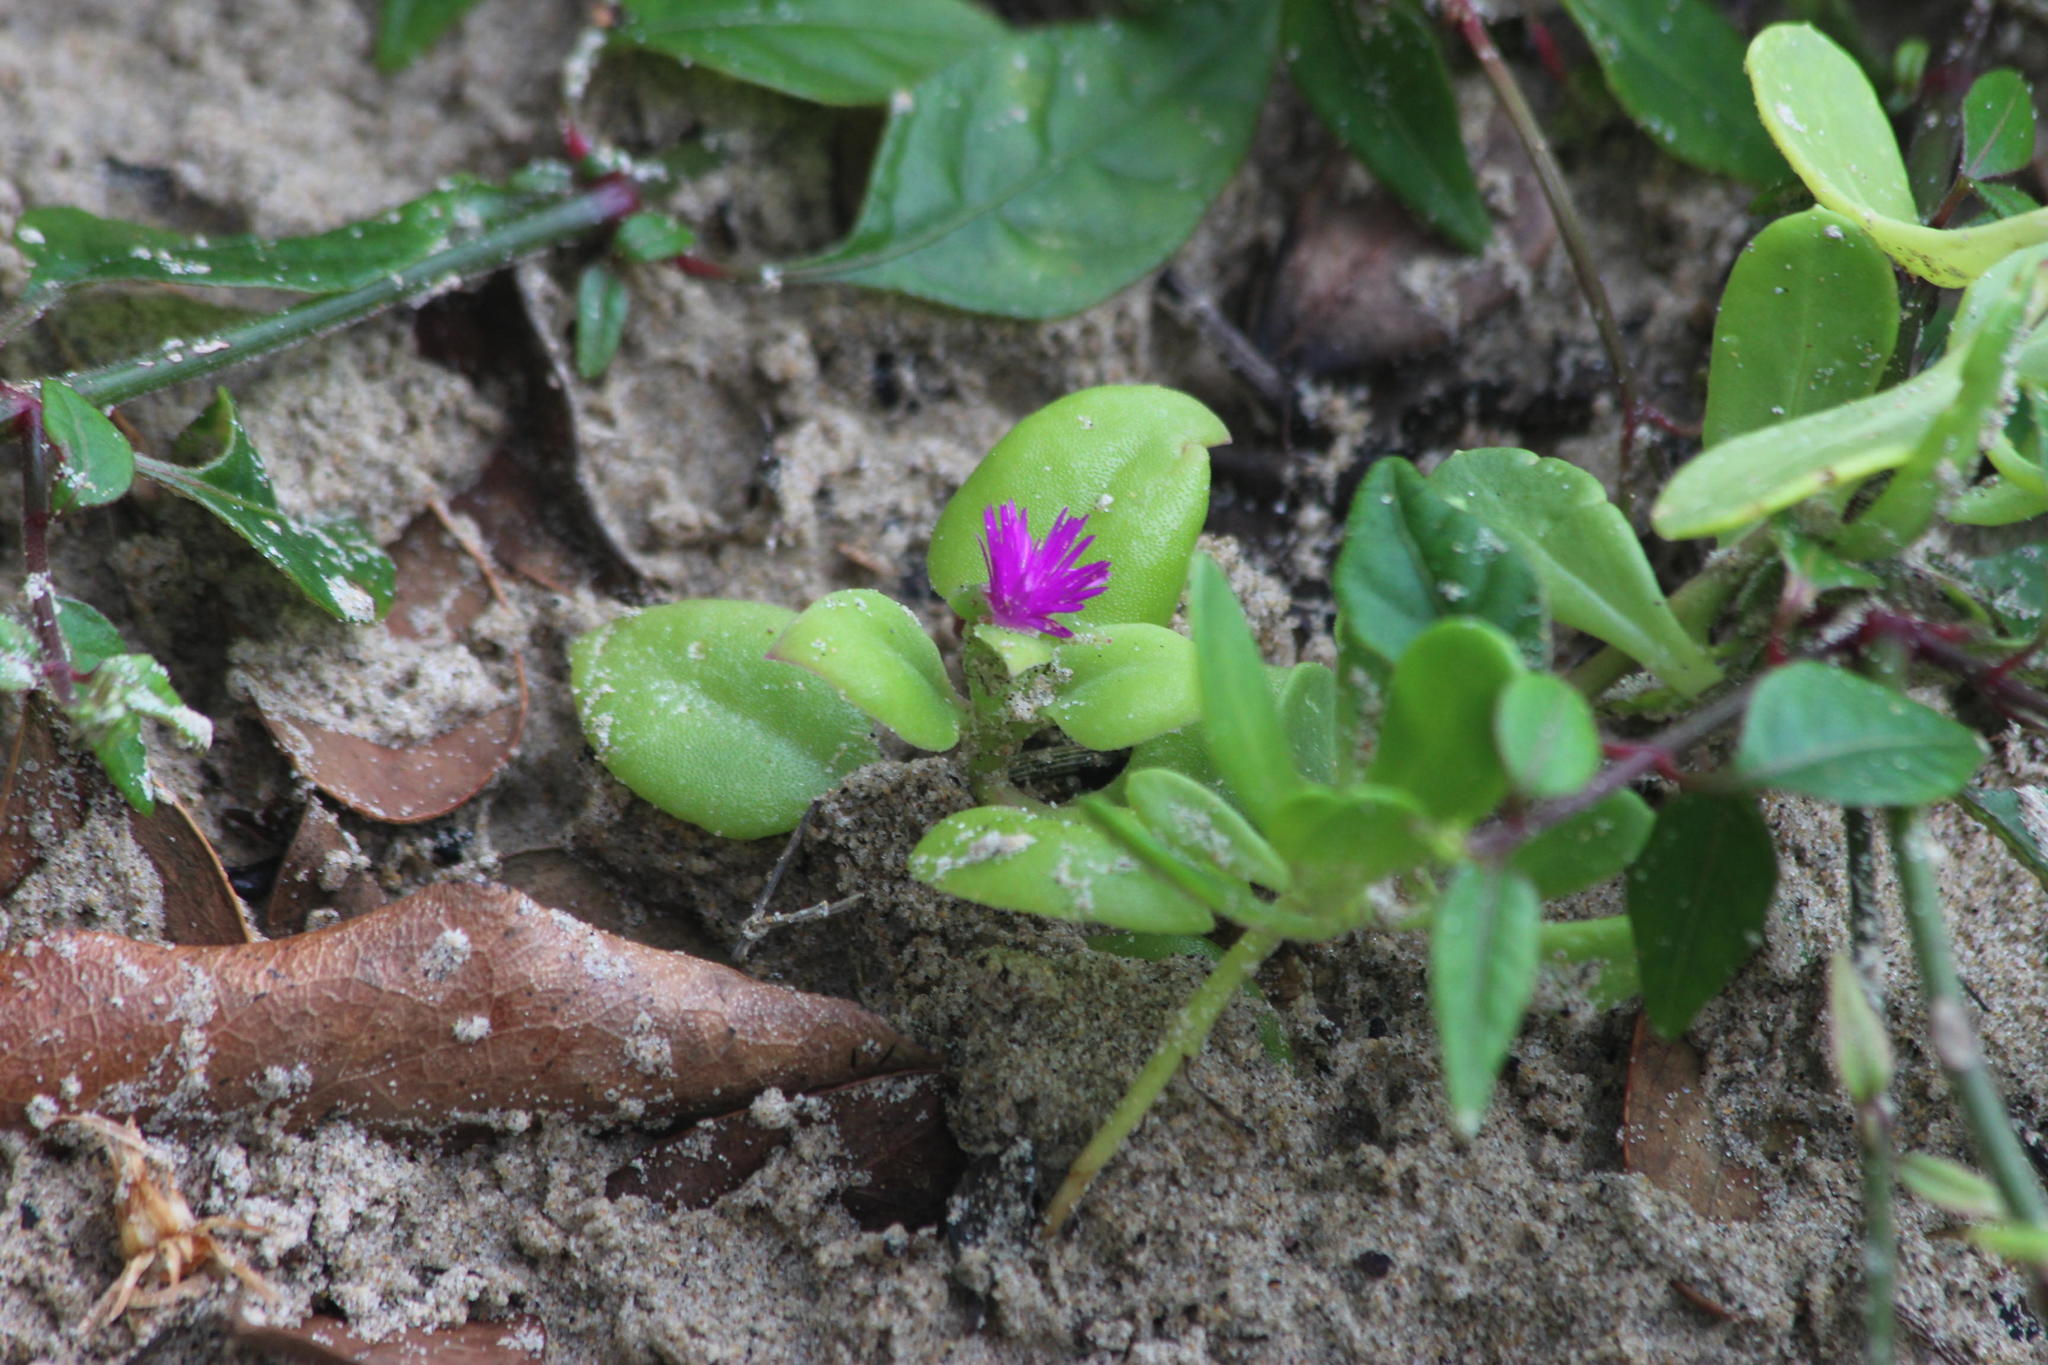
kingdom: Plantae
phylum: Tracheophyta
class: Magnoliopsida
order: Caryophyllales
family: Aizoaceae
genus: Mesembryanthemum
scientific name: Mesembryanthemum cordifolium
